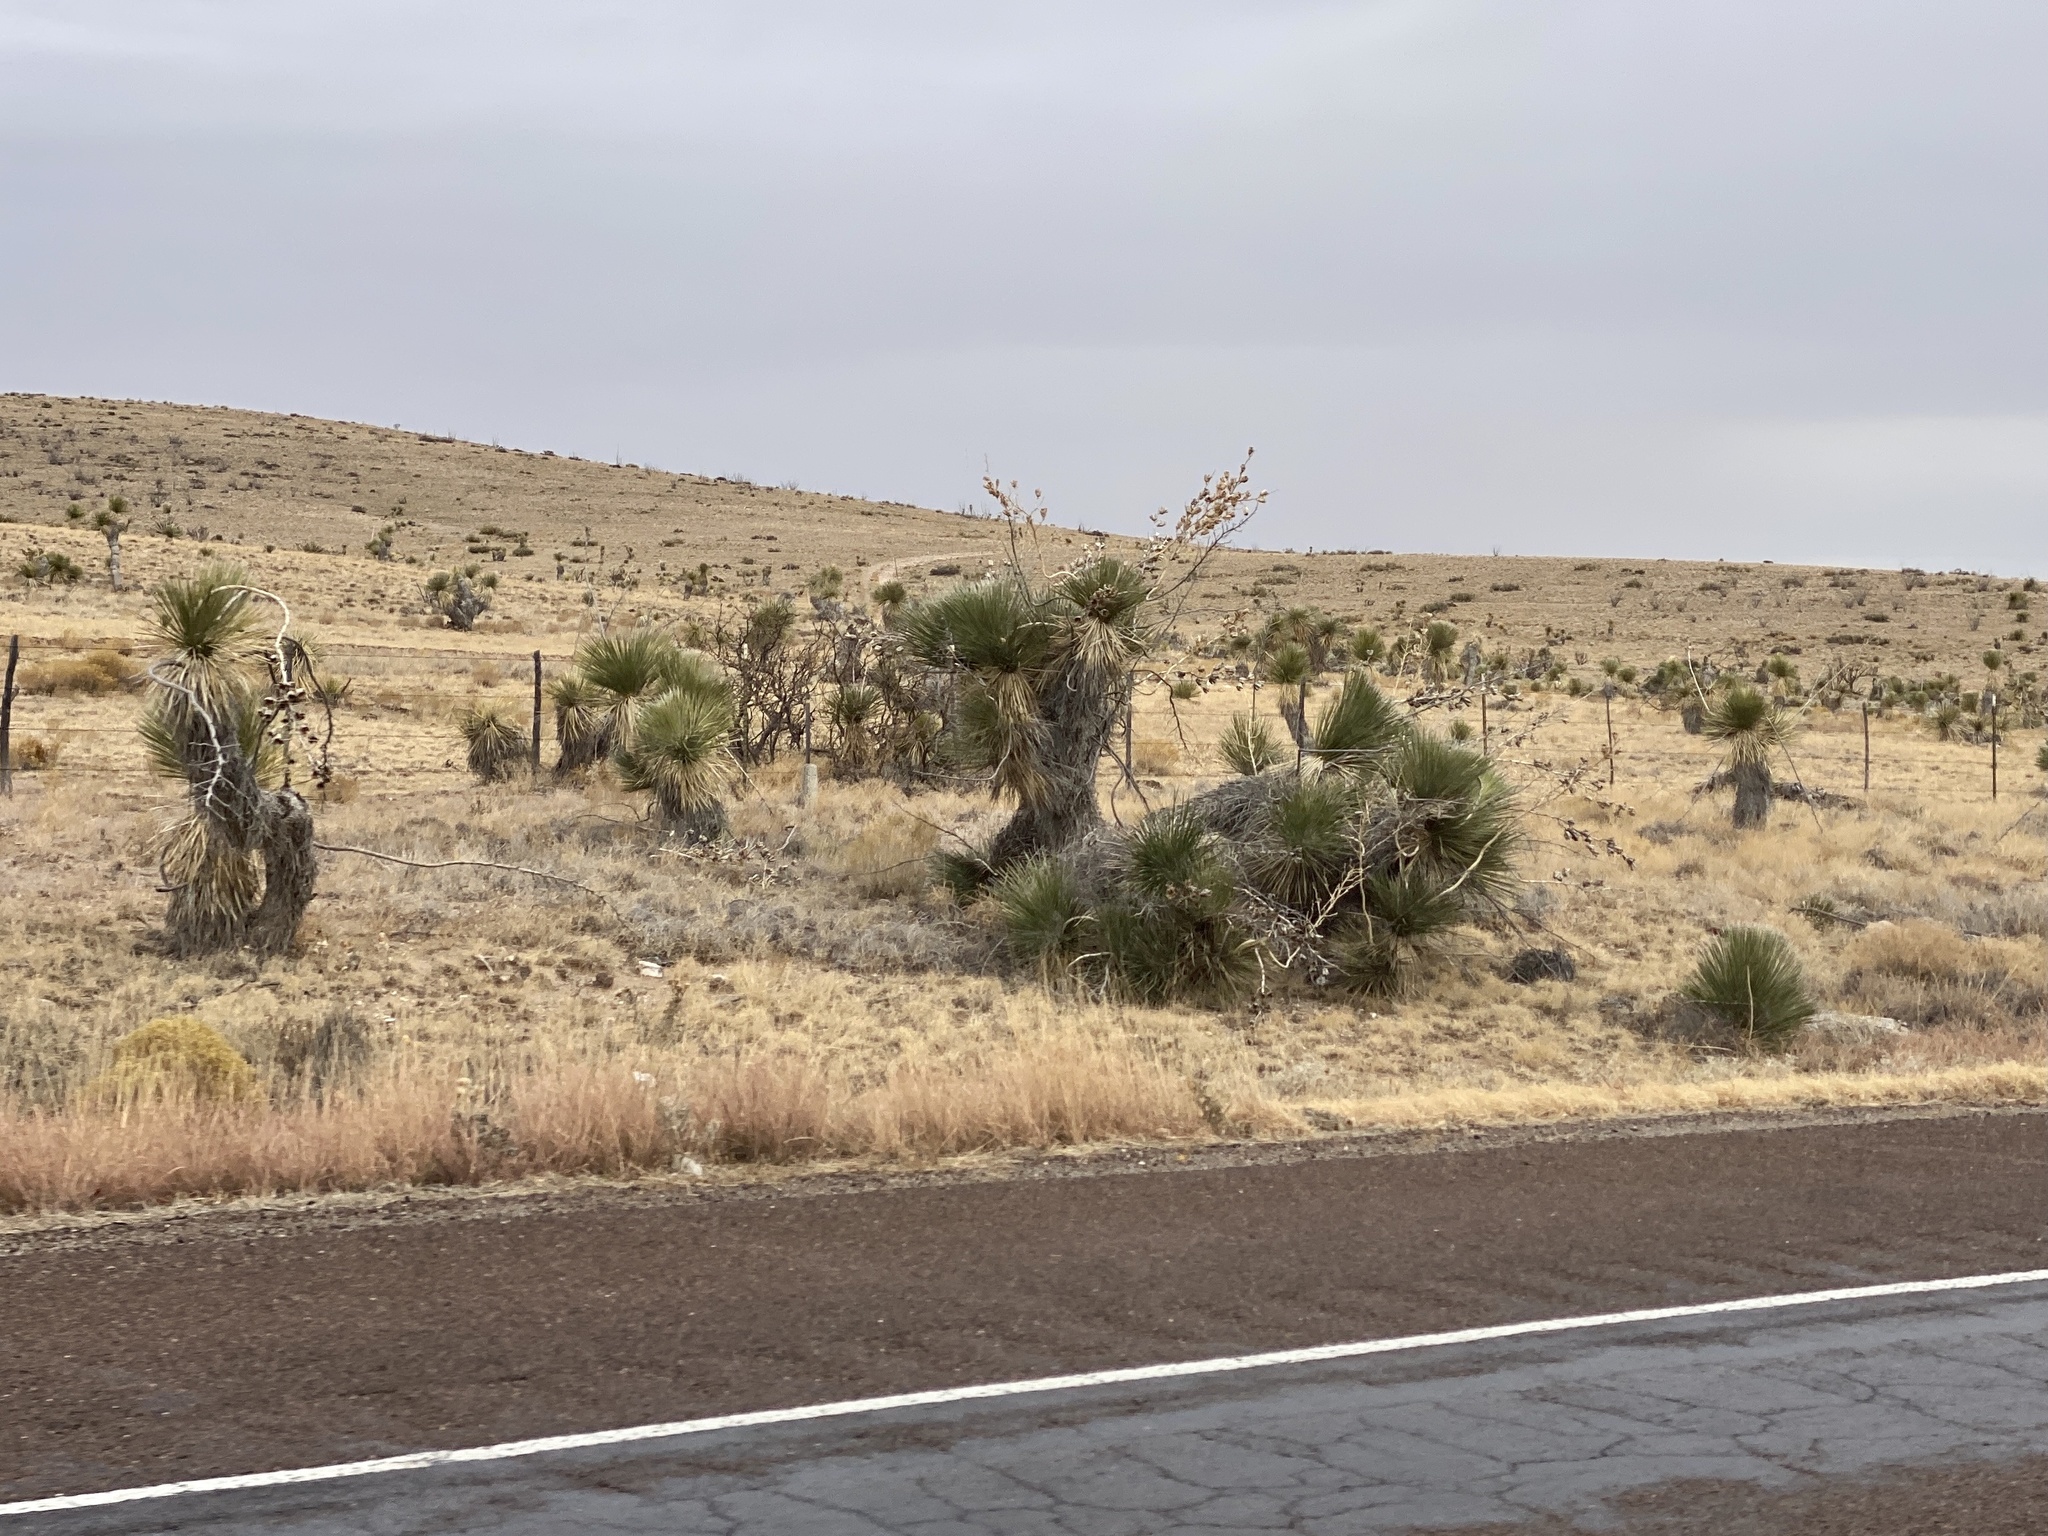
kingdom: Plantae
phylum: Tracheophyta
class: Liliopsida
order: Asparagales
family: Asparagaceae
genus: Yucca
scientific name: Yucca elata
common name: Palmella
